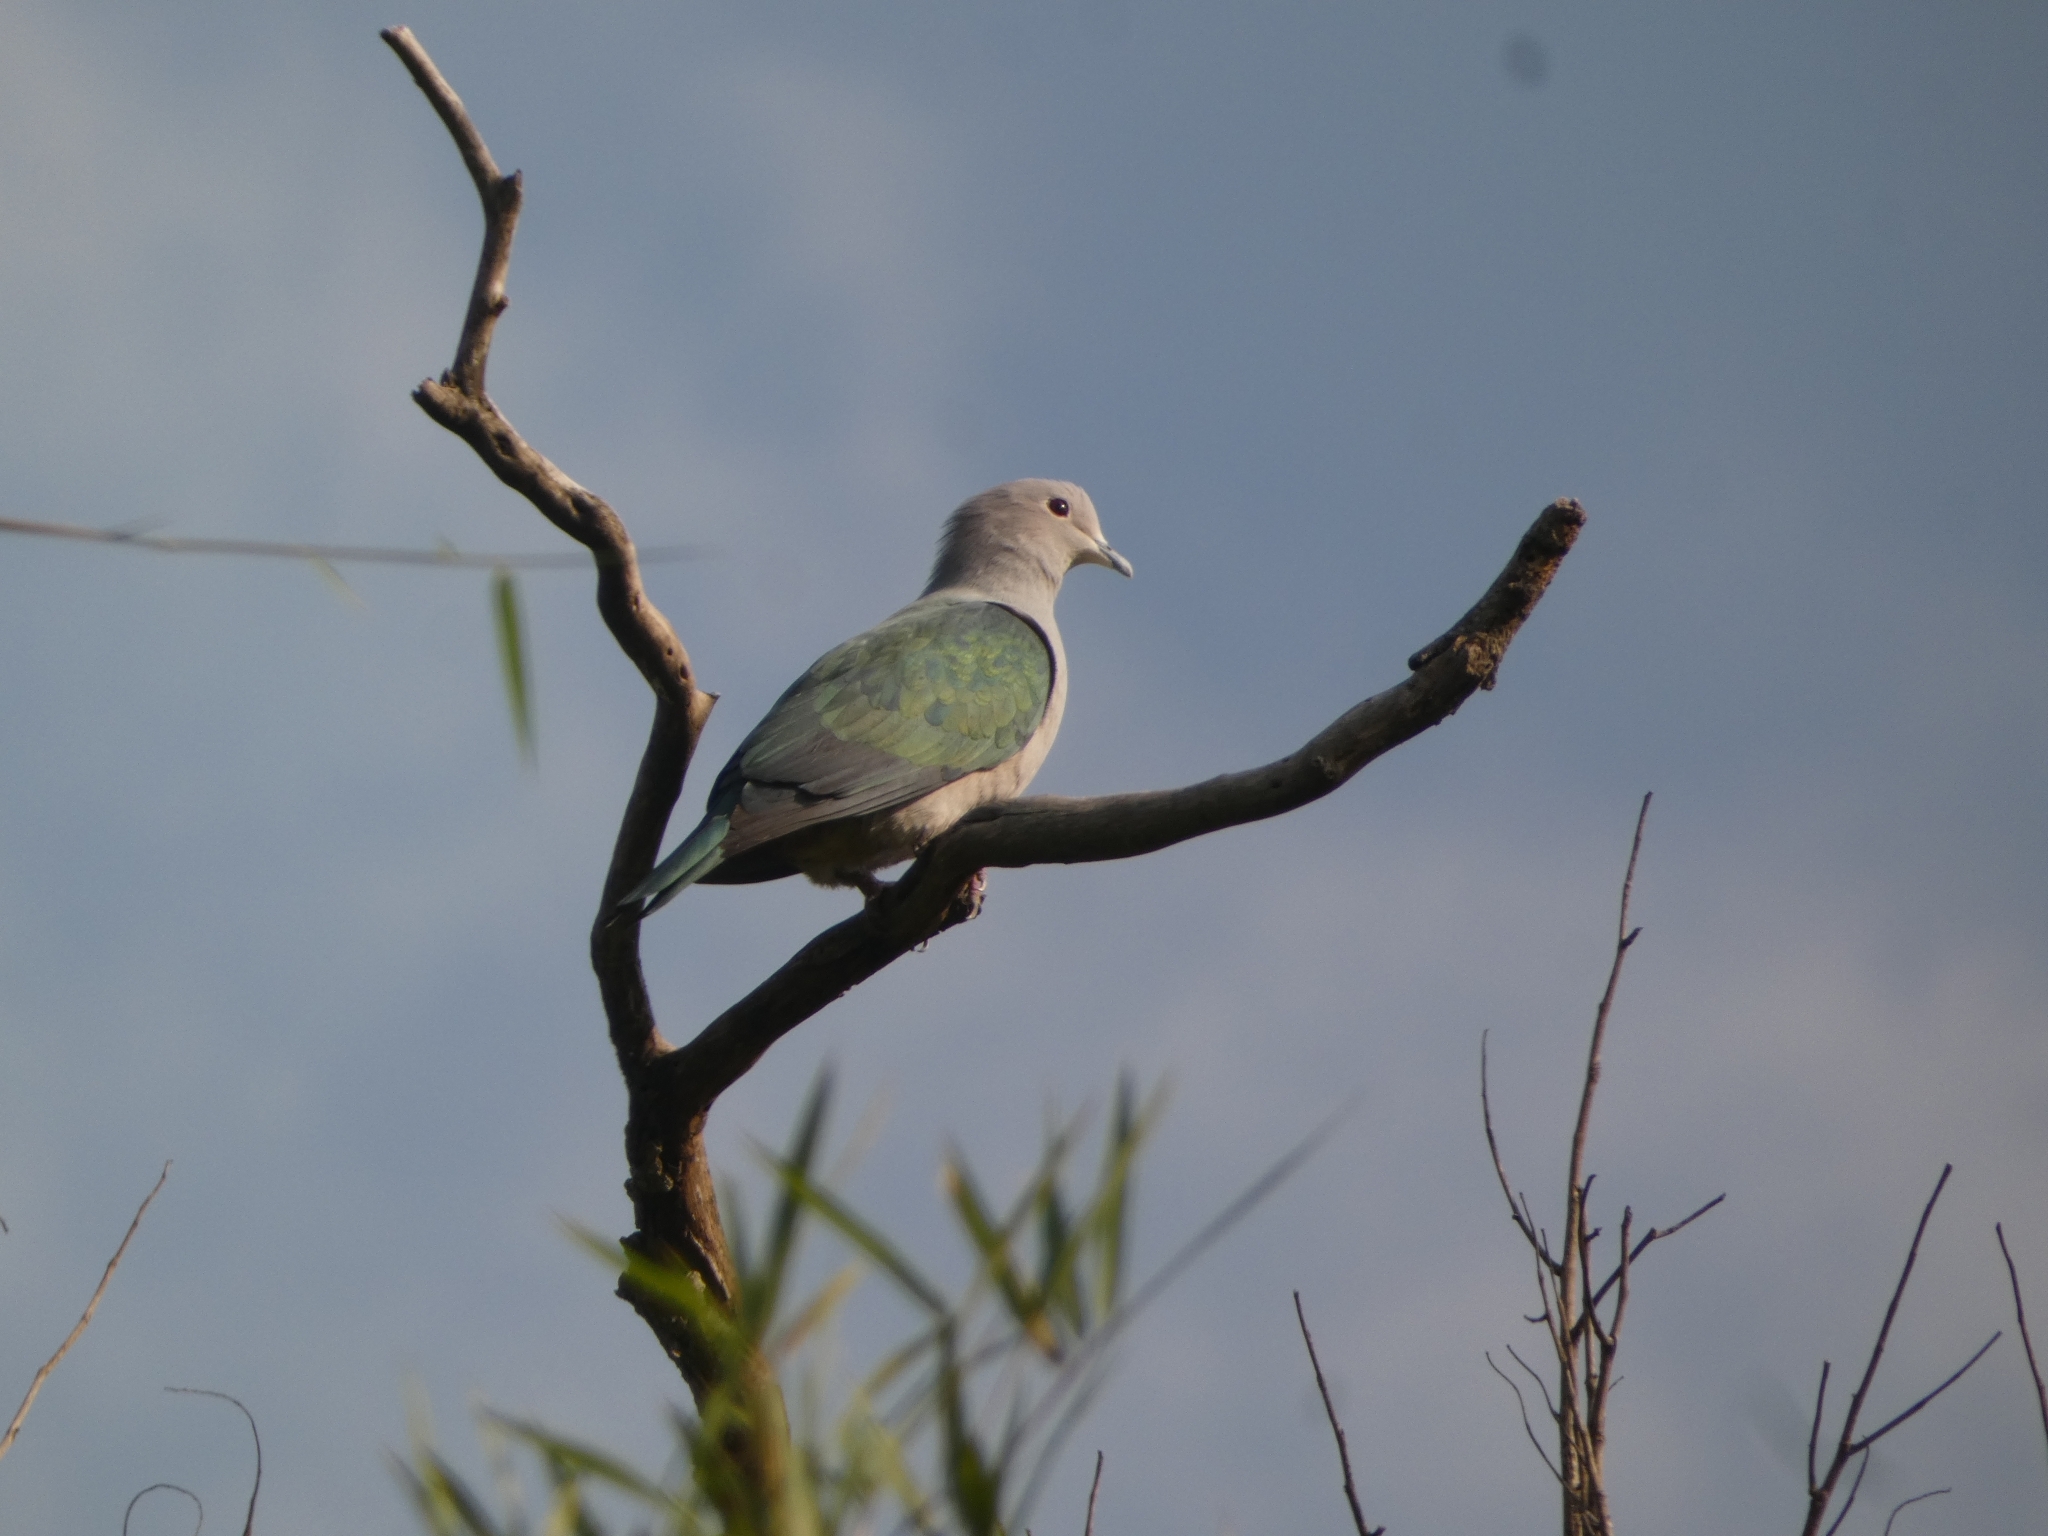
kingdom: Animalia
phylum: Chordata
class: Aves
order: Columbiformes
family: Columbidae
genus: Ducula
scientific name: Ducula aenea
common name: Green imperial pigeon
